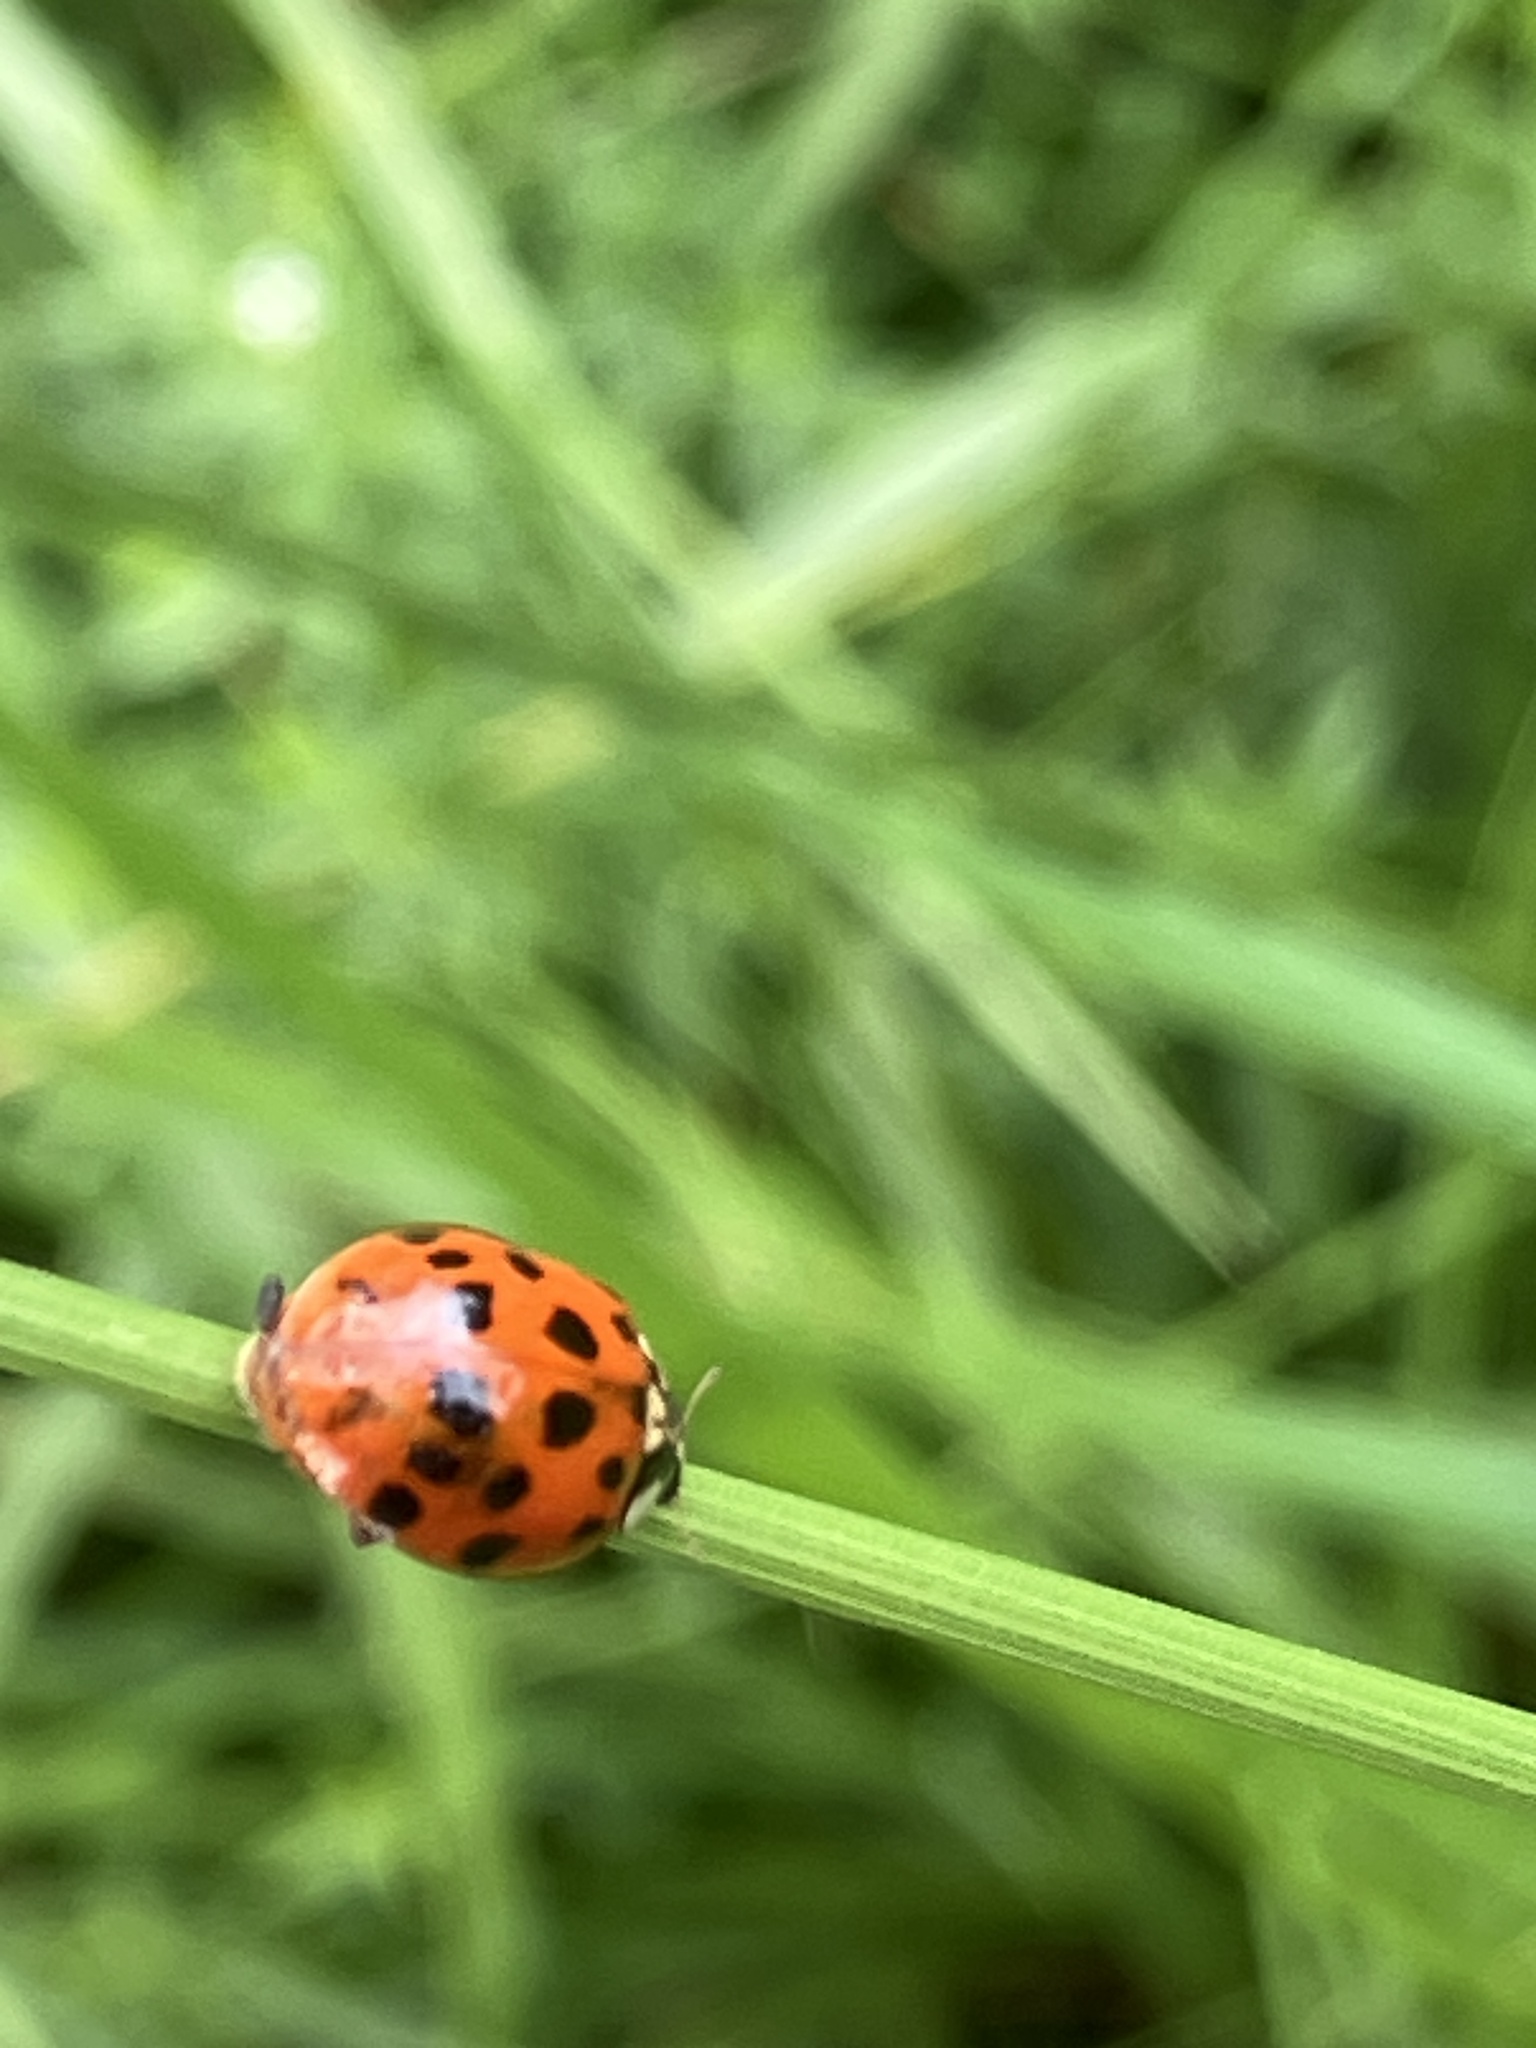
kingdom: Animalia
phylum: Arthropoda
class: Insecta
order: Coleoptera
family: Coccinellidae
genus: Harmonia
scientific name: Harmonia axyridis
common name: Harlequin ladybird
